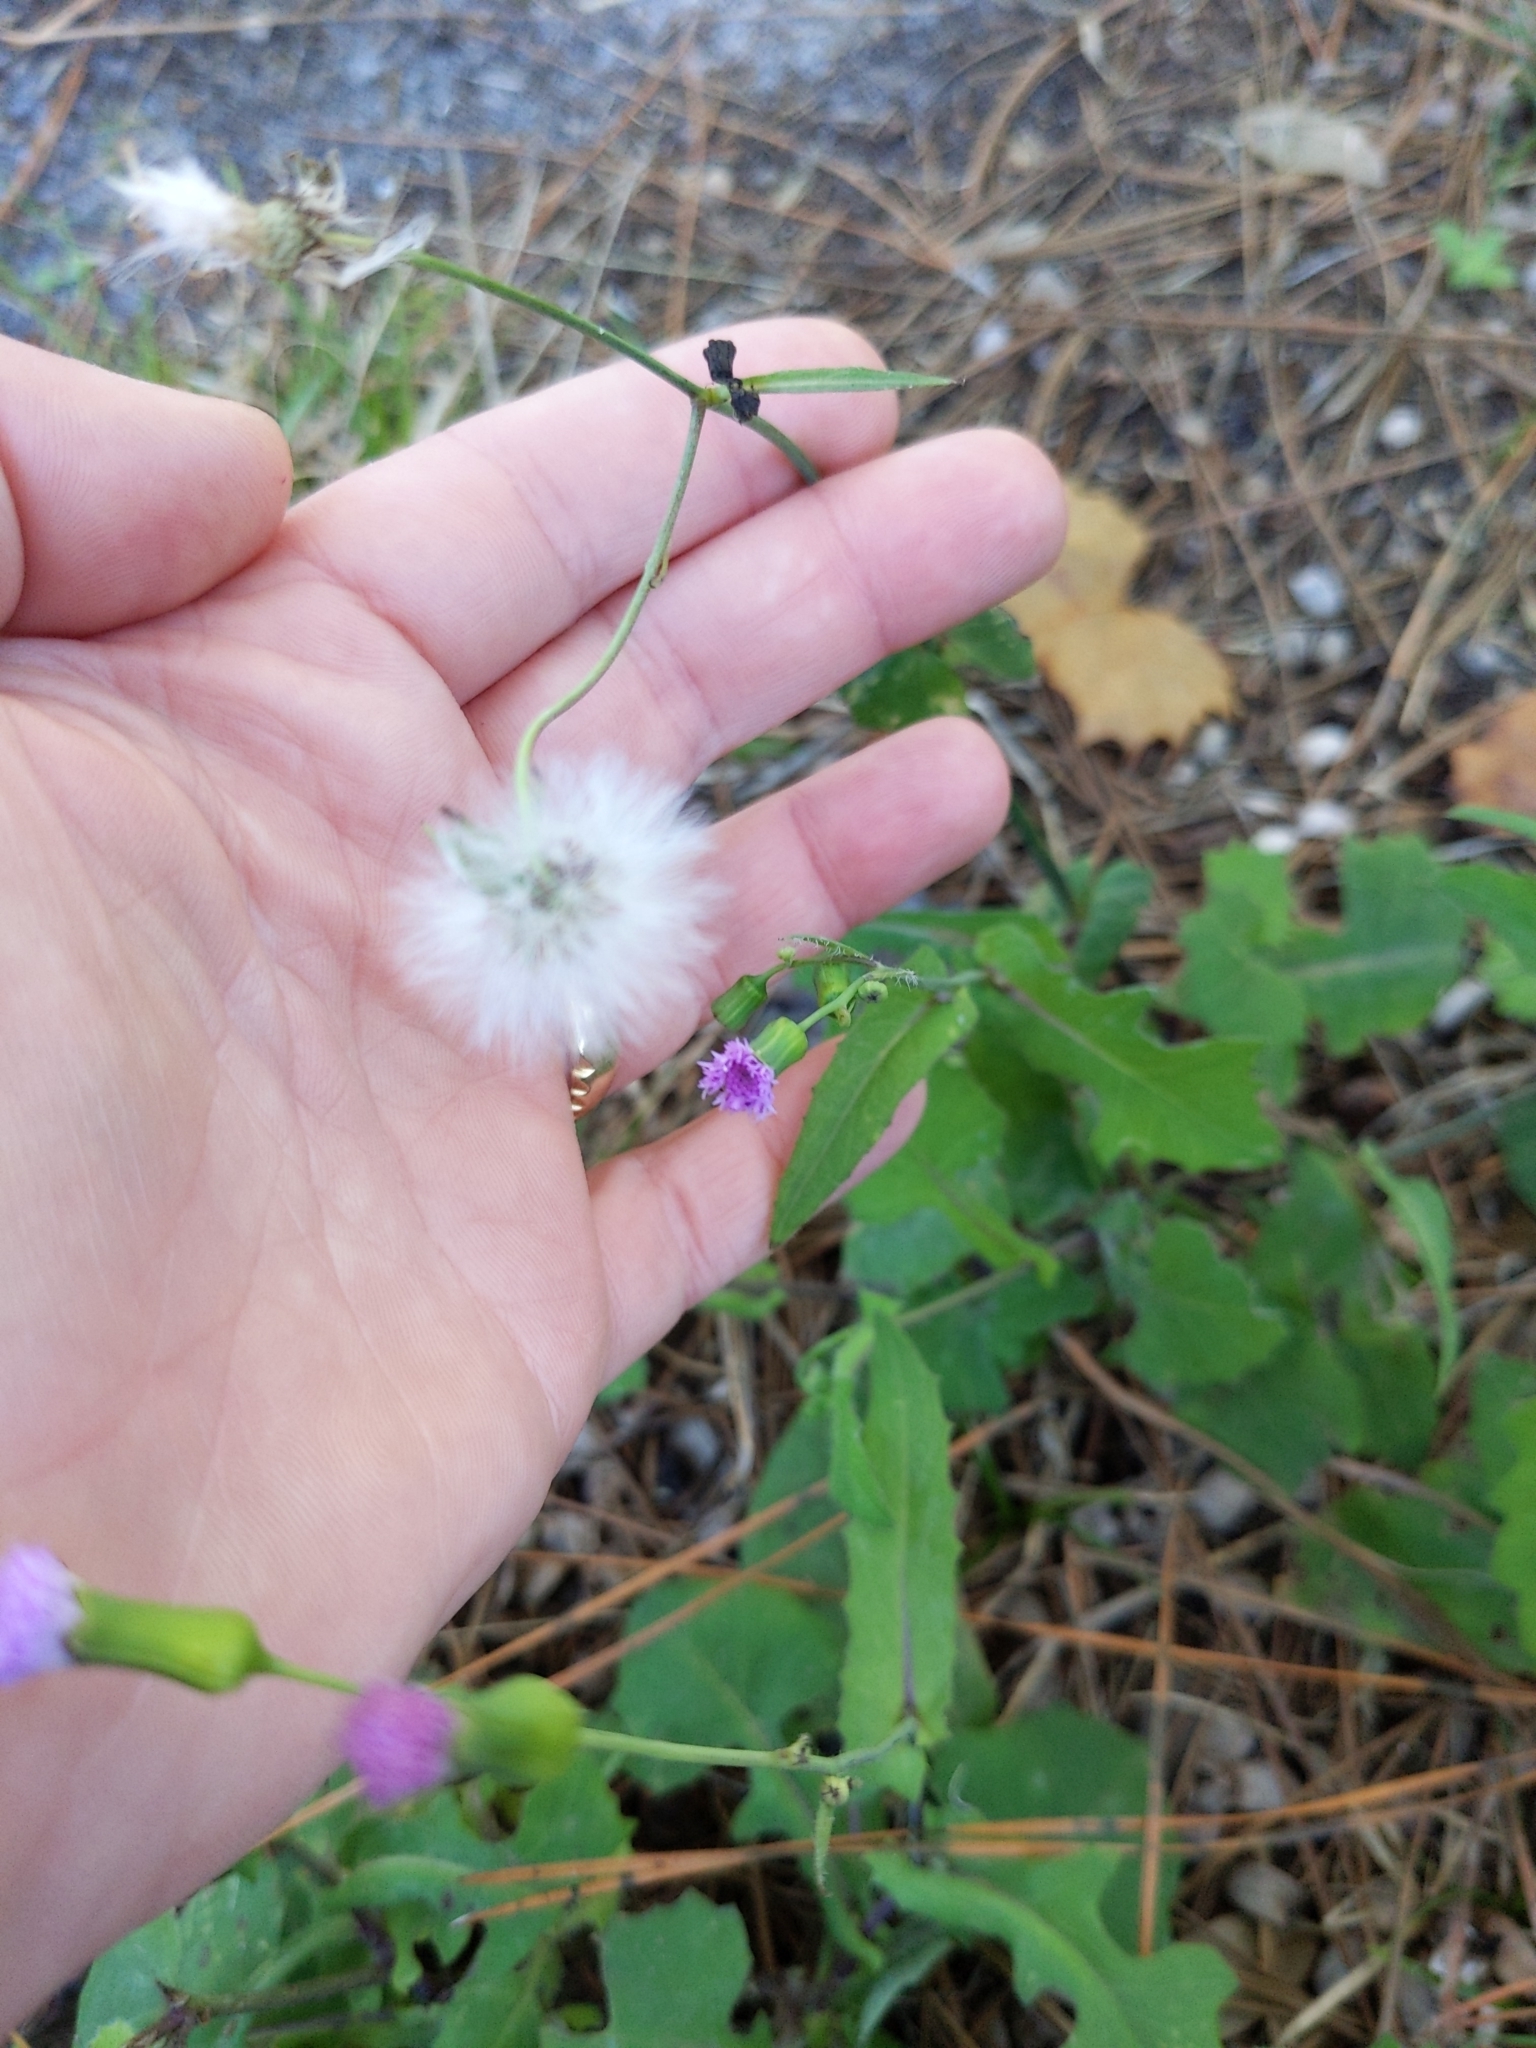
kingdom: Plantae
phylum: Tracheophyta
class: Magnoliopsida
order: Asterales
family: Asteraceae
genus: Emilia
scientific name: Emilia sonchifolia
